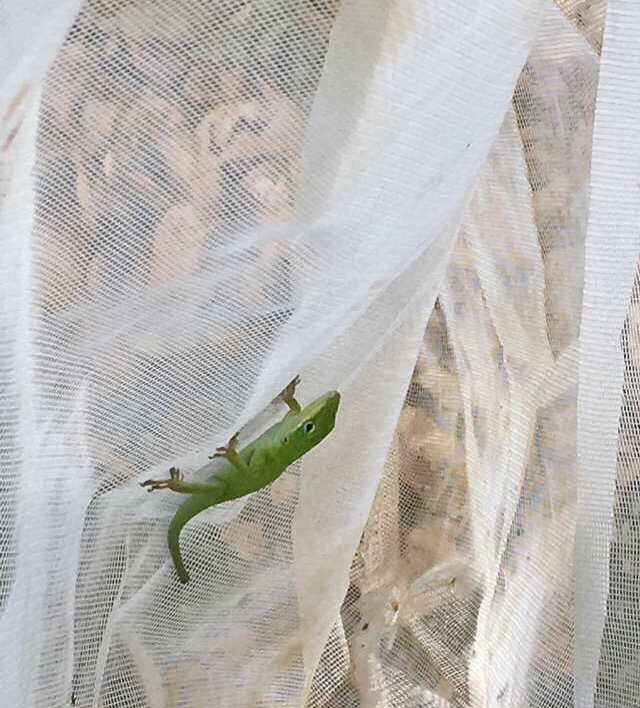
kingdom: Animalia
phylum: Chordata
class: Squamata
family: Dactyloidae
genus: Anolis
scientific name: Anolis carolinensis
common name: Green anole
